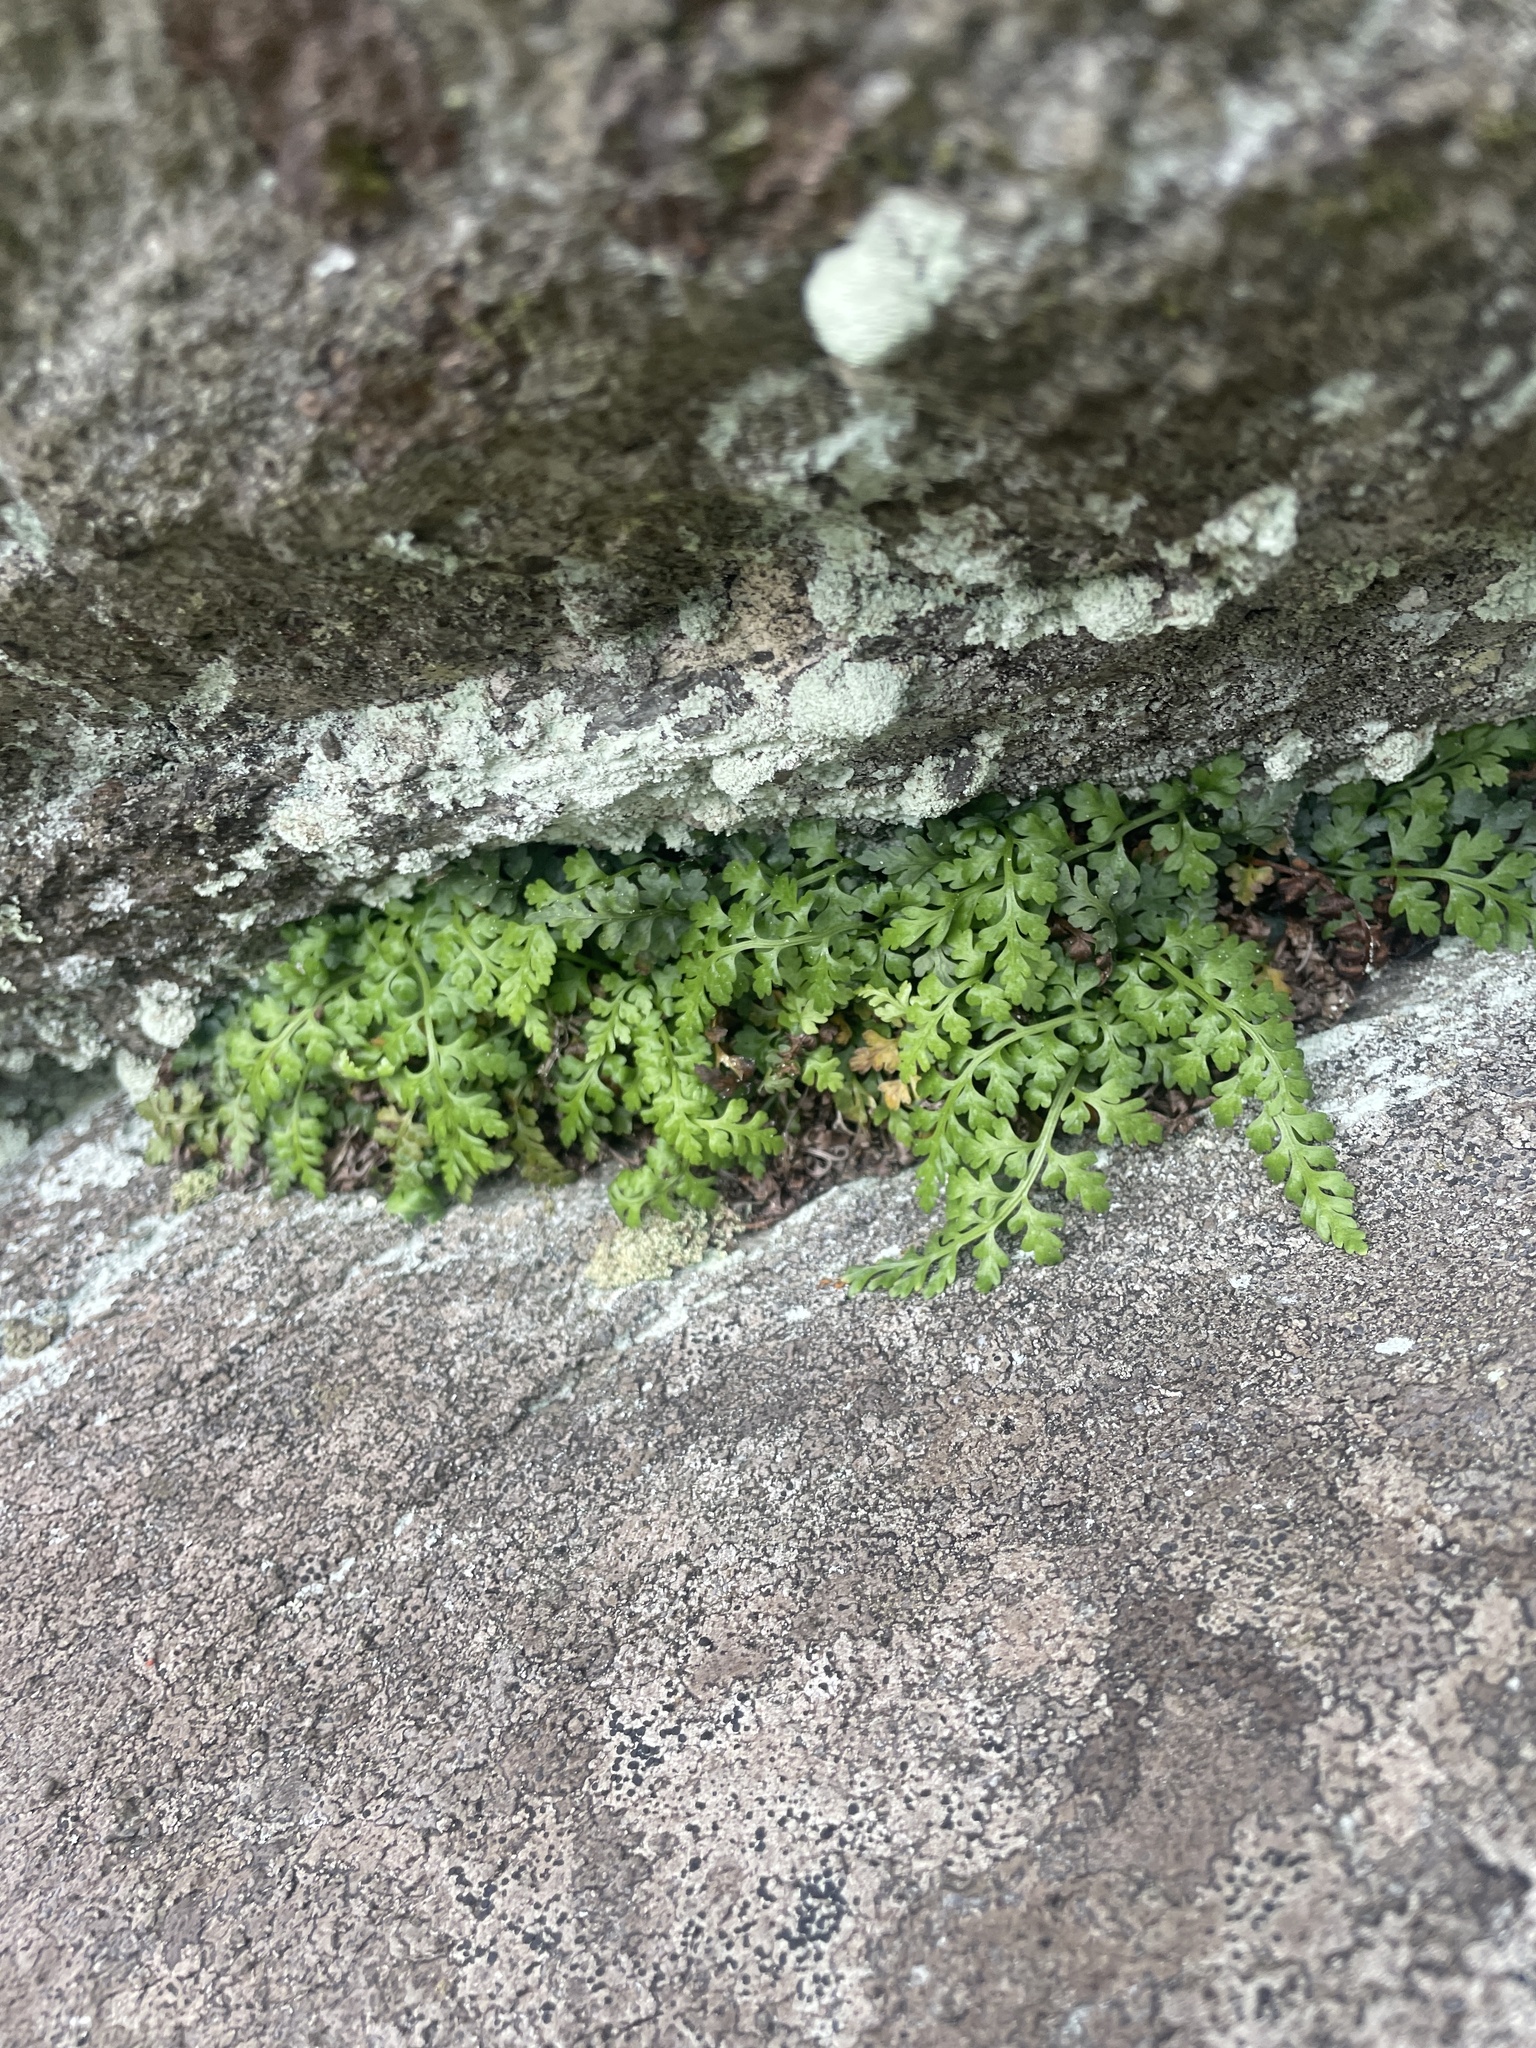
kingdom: Plantae
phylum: Tracheophyta
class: Polypodiopsida
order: Polypodiales
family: Aspleniaceae
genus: Asplenium
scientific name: Asplenium montanum
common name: Mountain spleenwort
